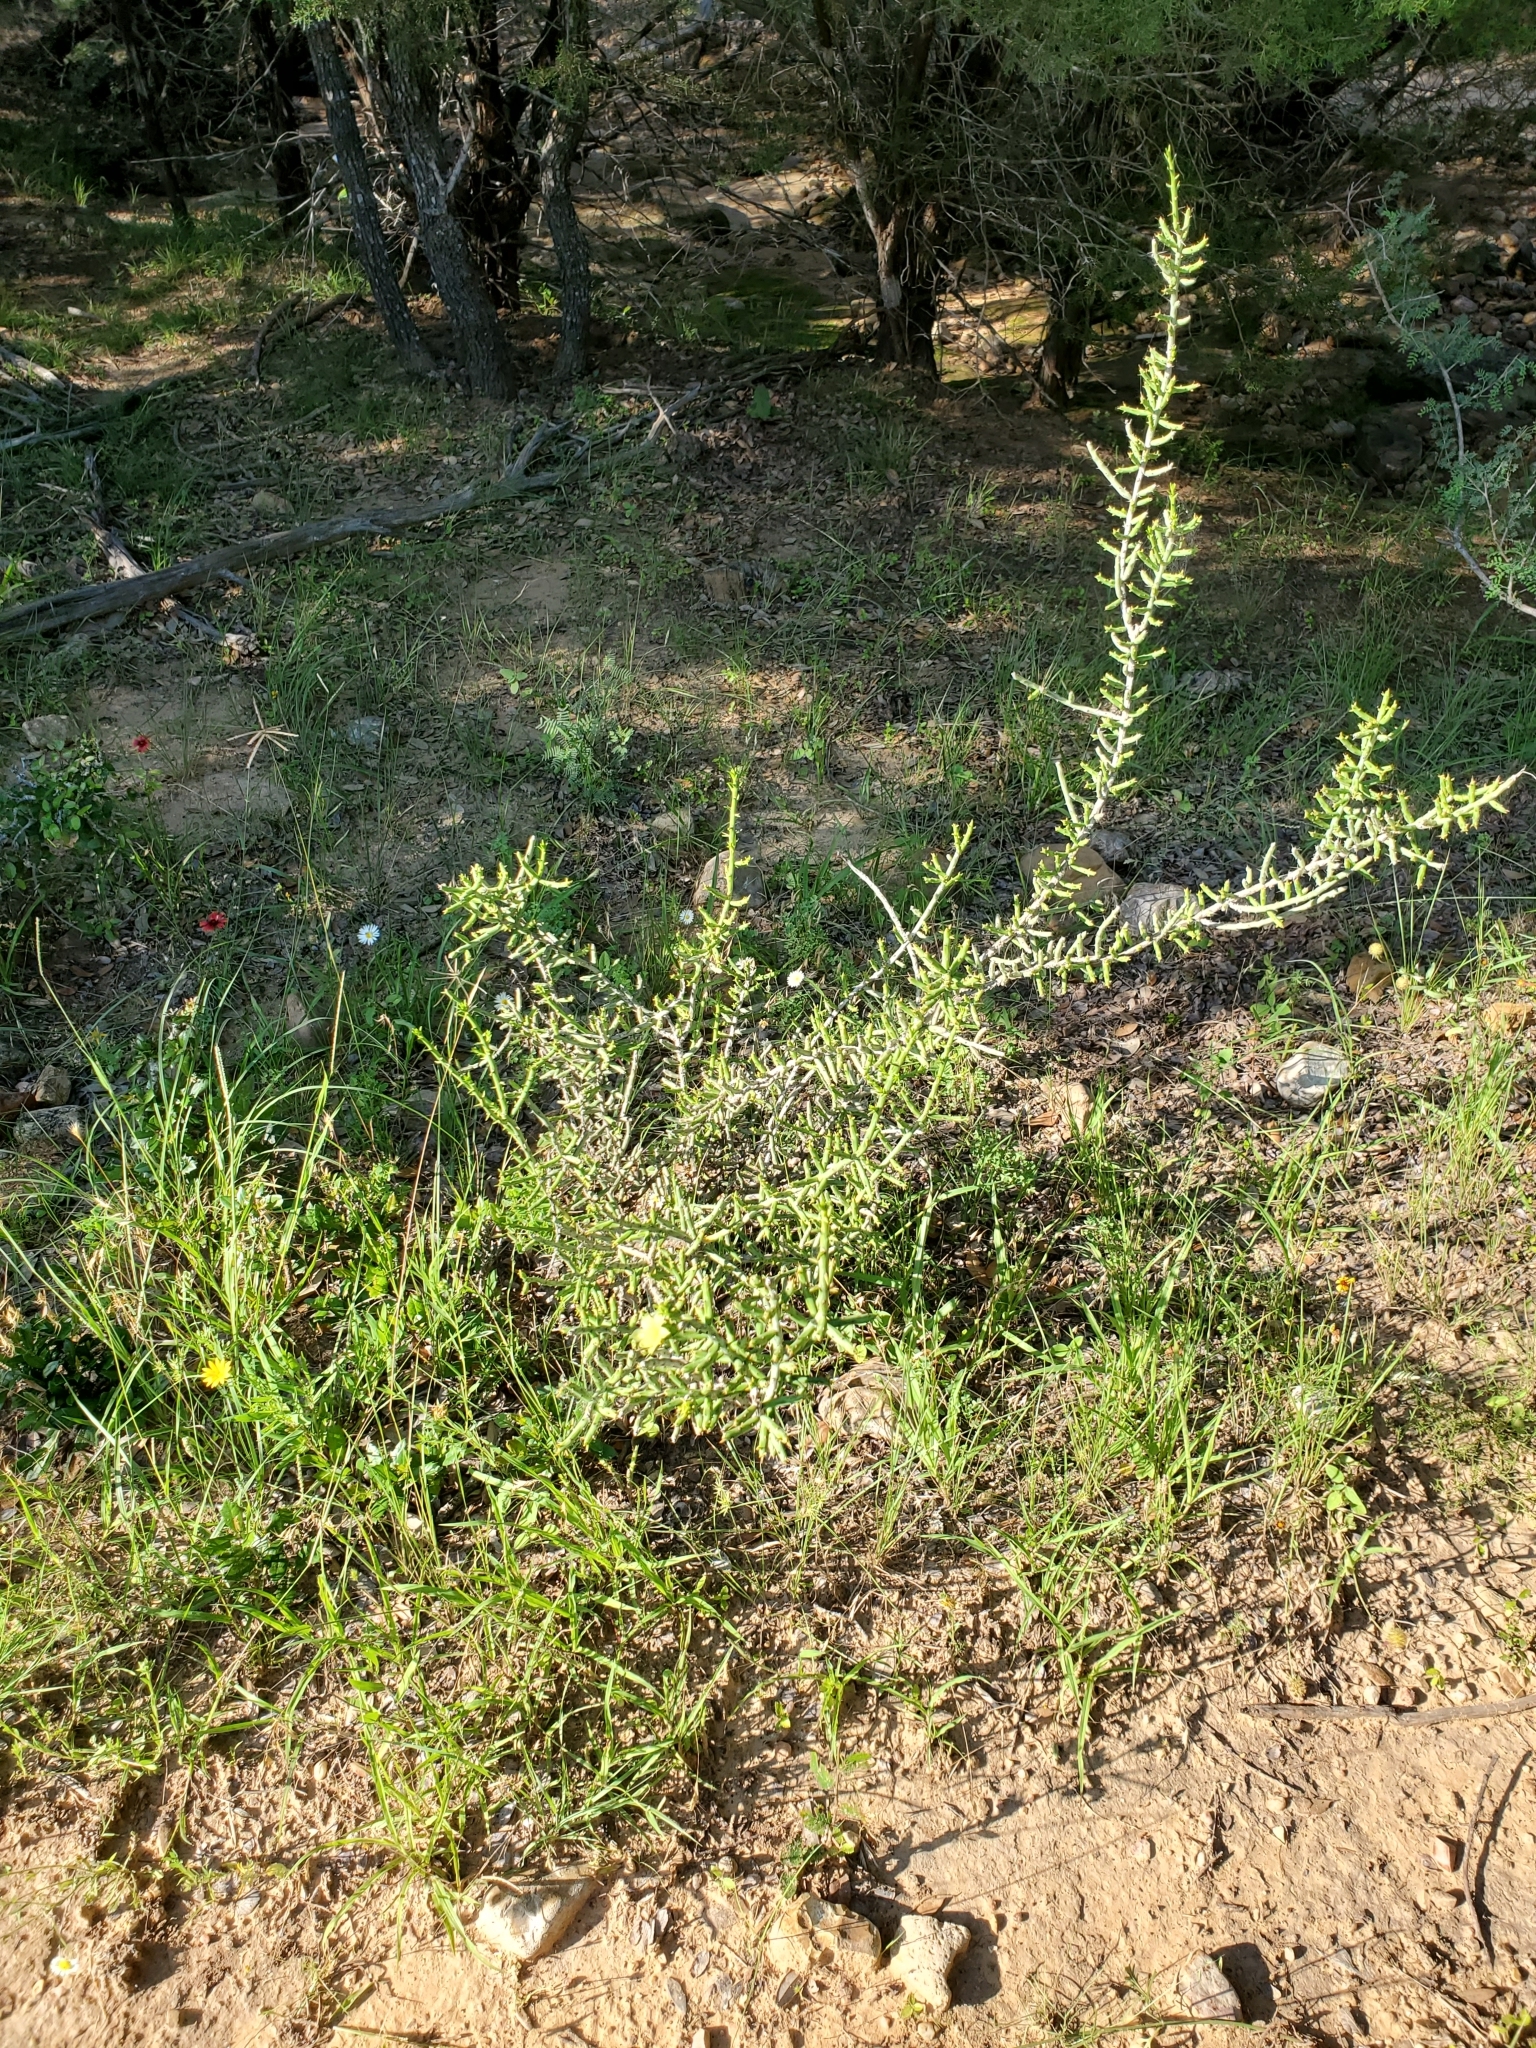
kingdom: Plantae
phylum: Tracheophyta
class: Magnoliopsida
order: Caryophyllales
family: Cactaceae
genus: Cylindropuntia
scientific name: Cylindropuntia leptocaulis
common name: Christmas cactus
